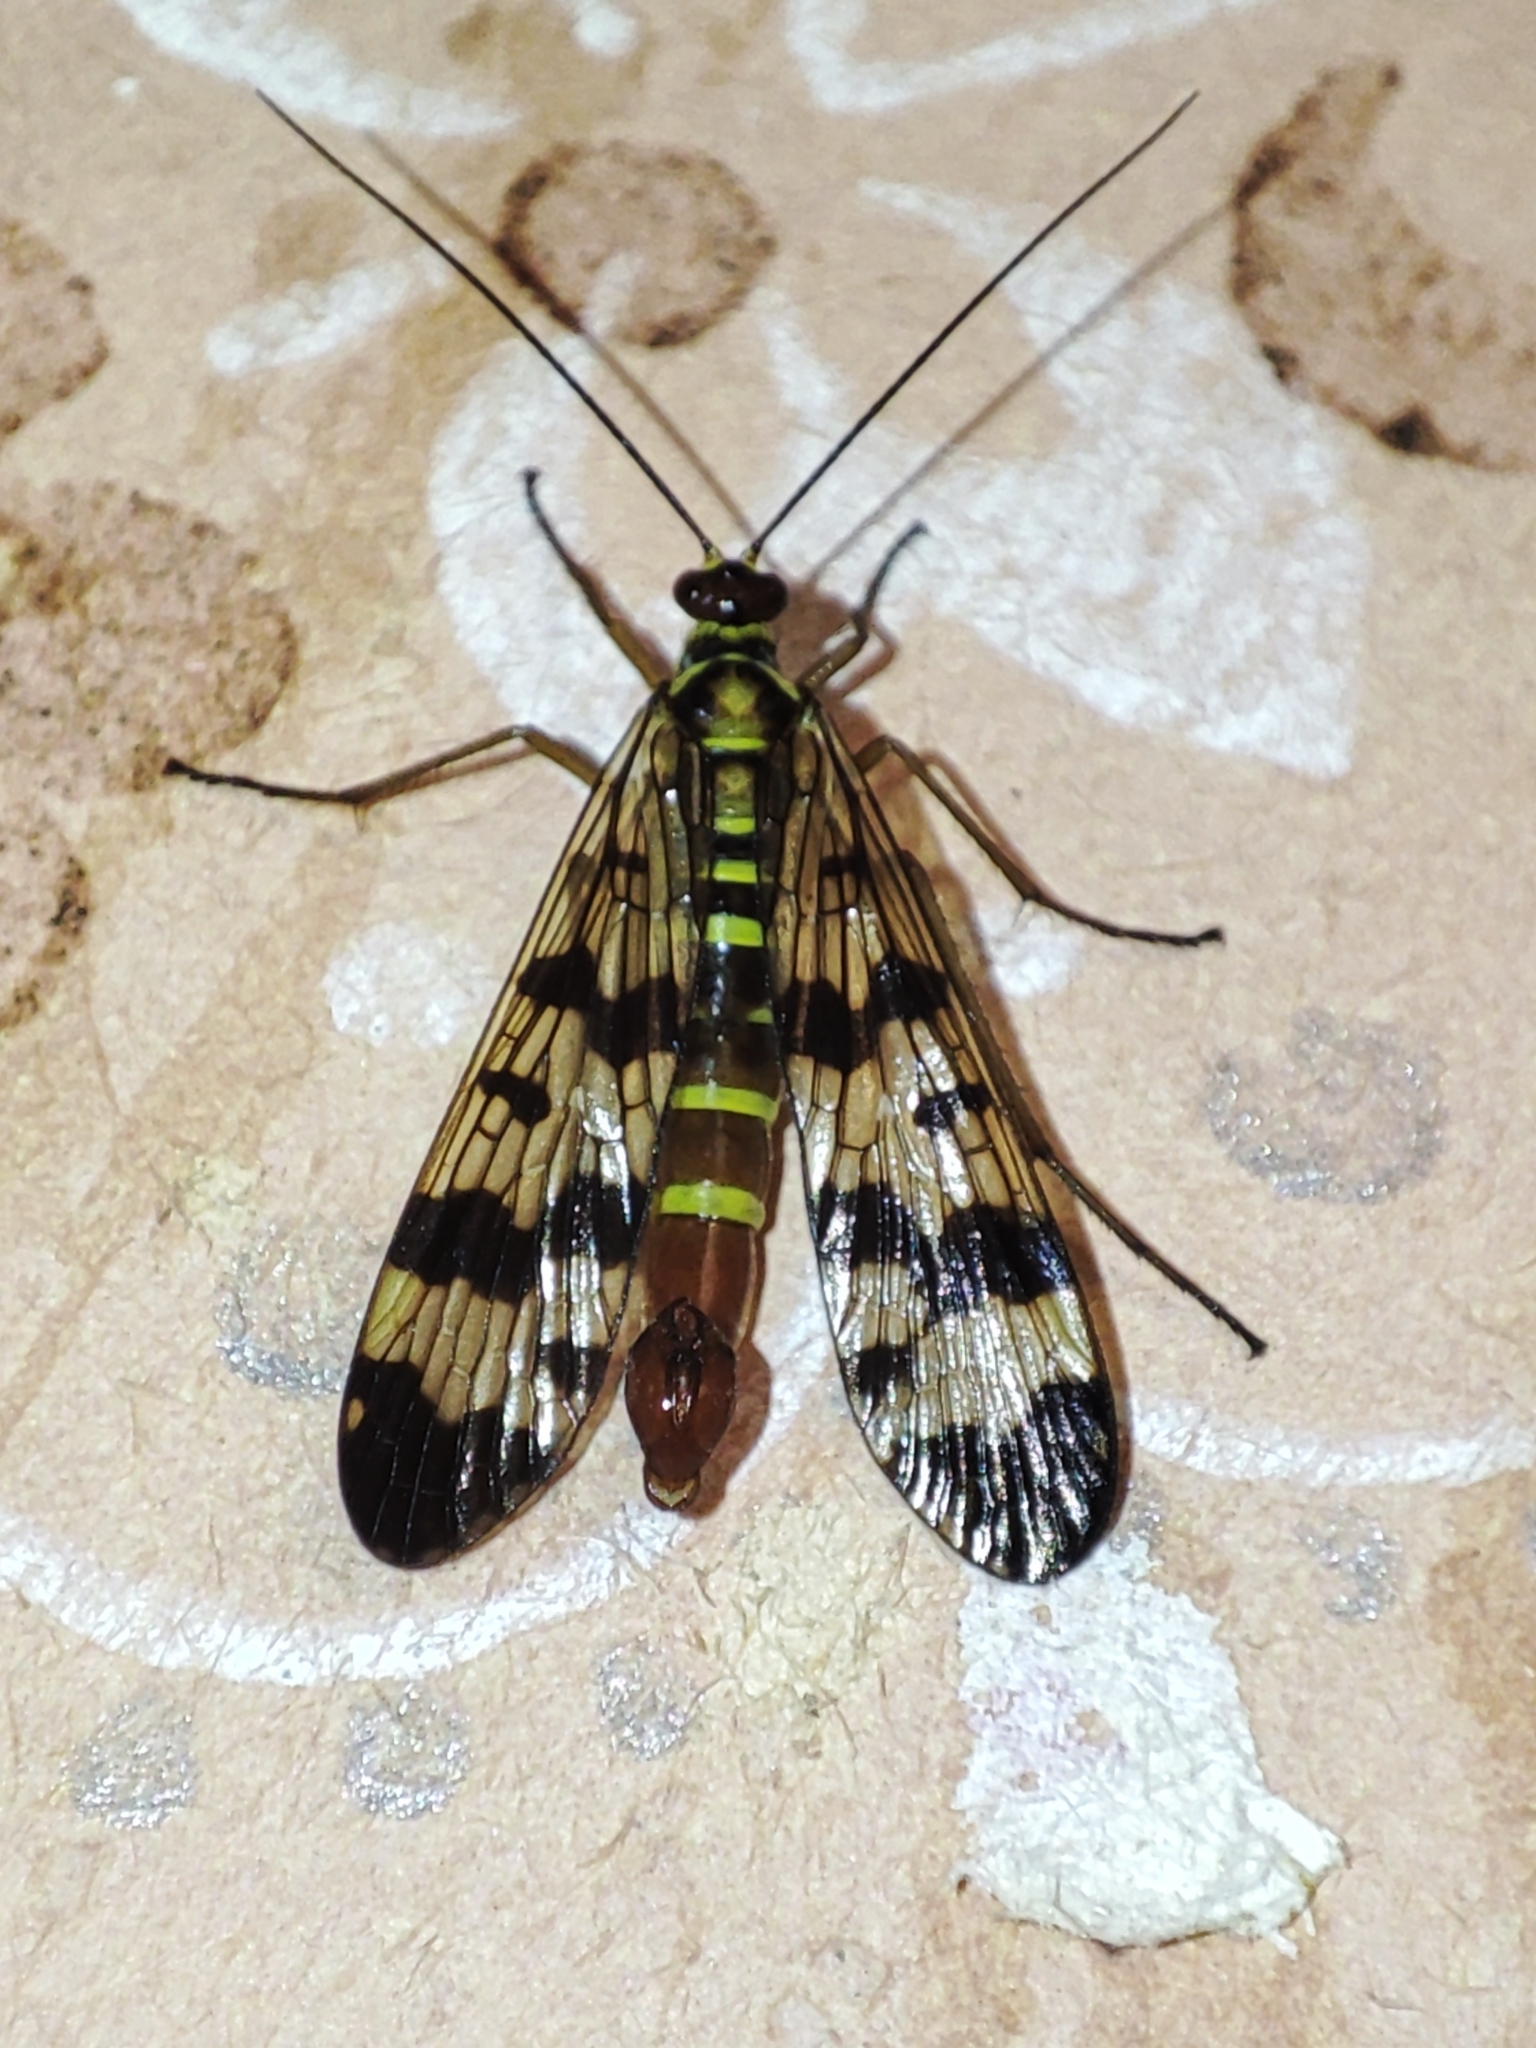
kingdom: Animalia
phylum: Arthropoda
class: Insecta
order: Mecoptera
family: Panorpidae
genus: Panorpa
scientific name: Panorpa communis
